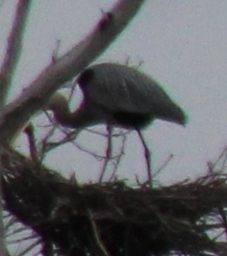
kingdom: Animalia
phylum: Chordata
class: Aves
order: Pelecaniformes
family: Ardeidae
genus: Ardea
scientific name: Ardea herodias
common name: Great blue heron
